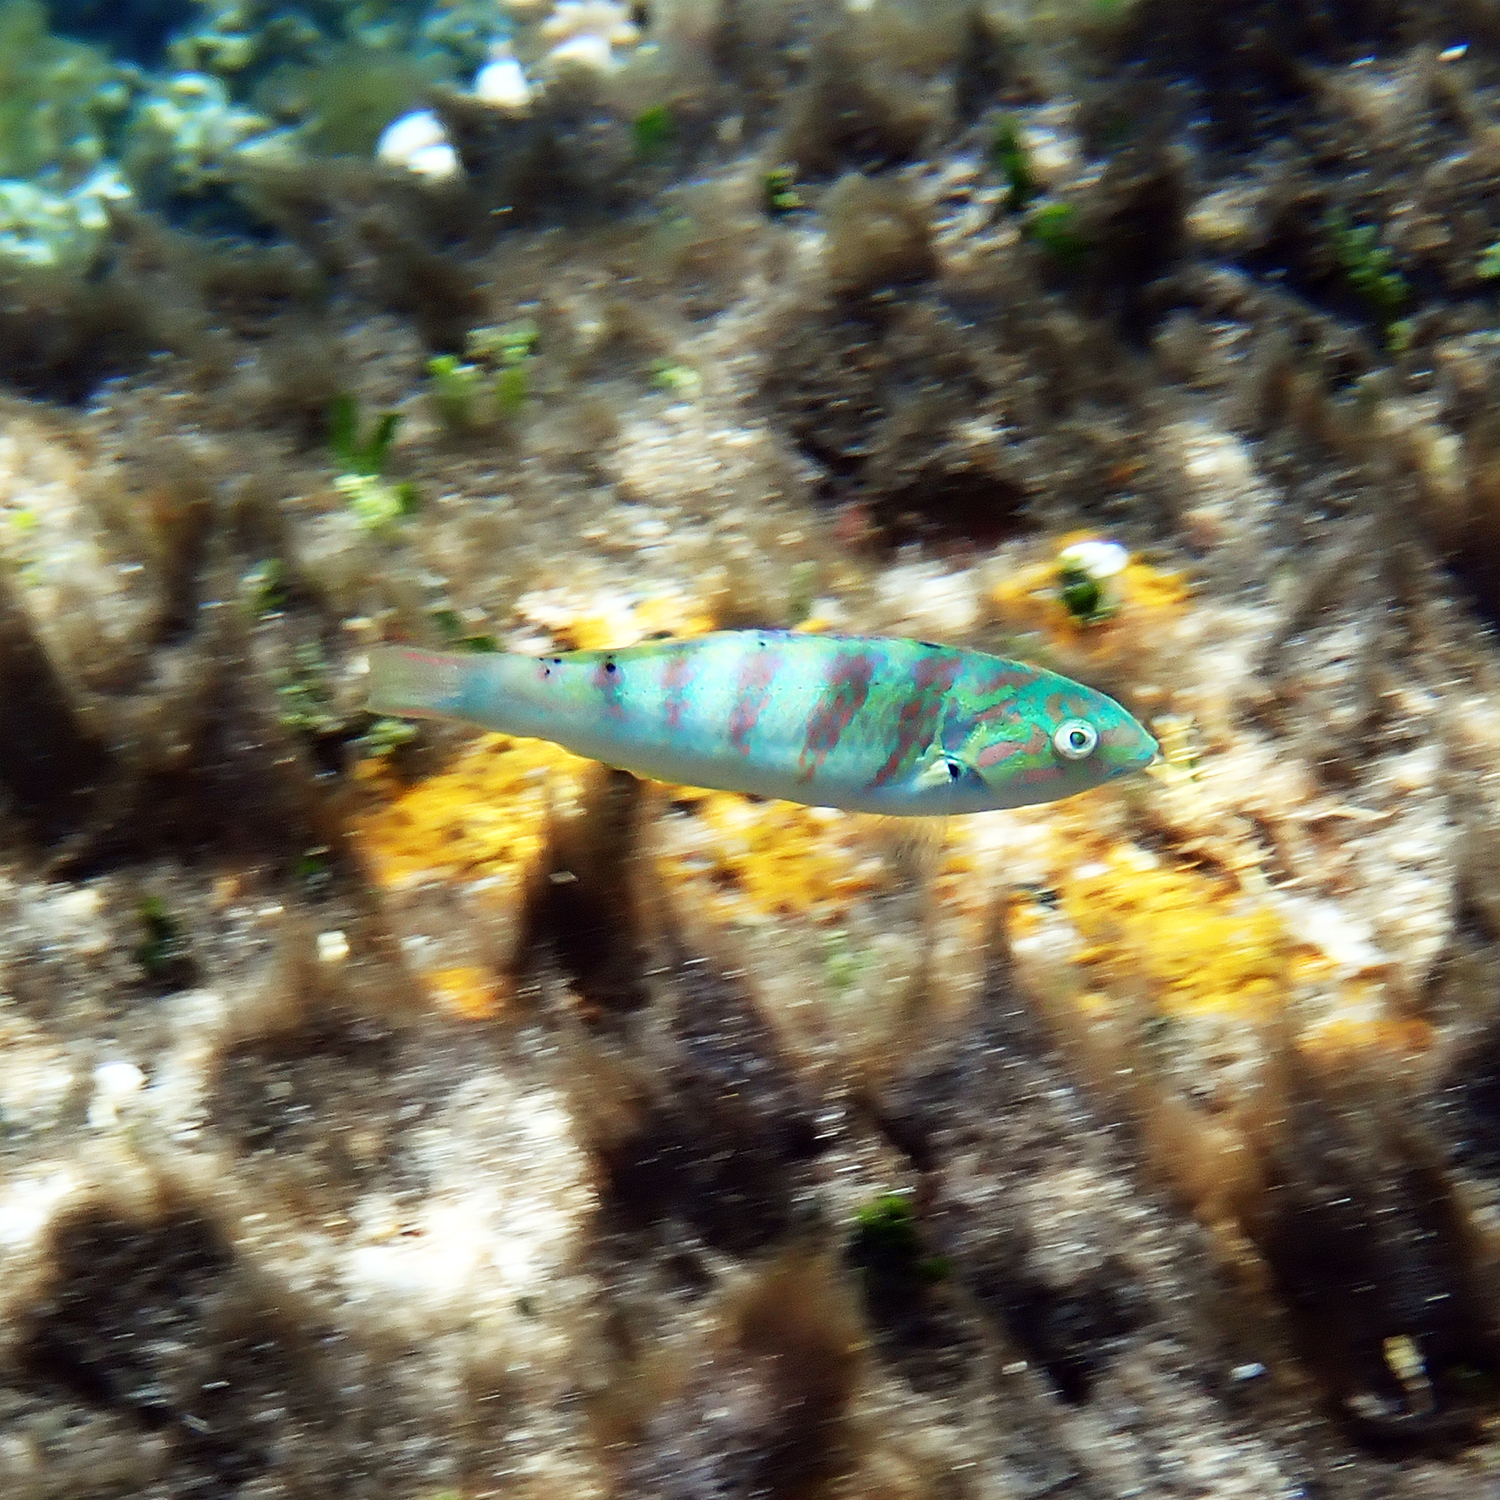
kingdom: Animalia
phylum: Chordata
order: Perciformes
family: Labridae
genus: Thalassoma
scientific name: Thalassoma hardwicke
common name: Sixbar wrasse
